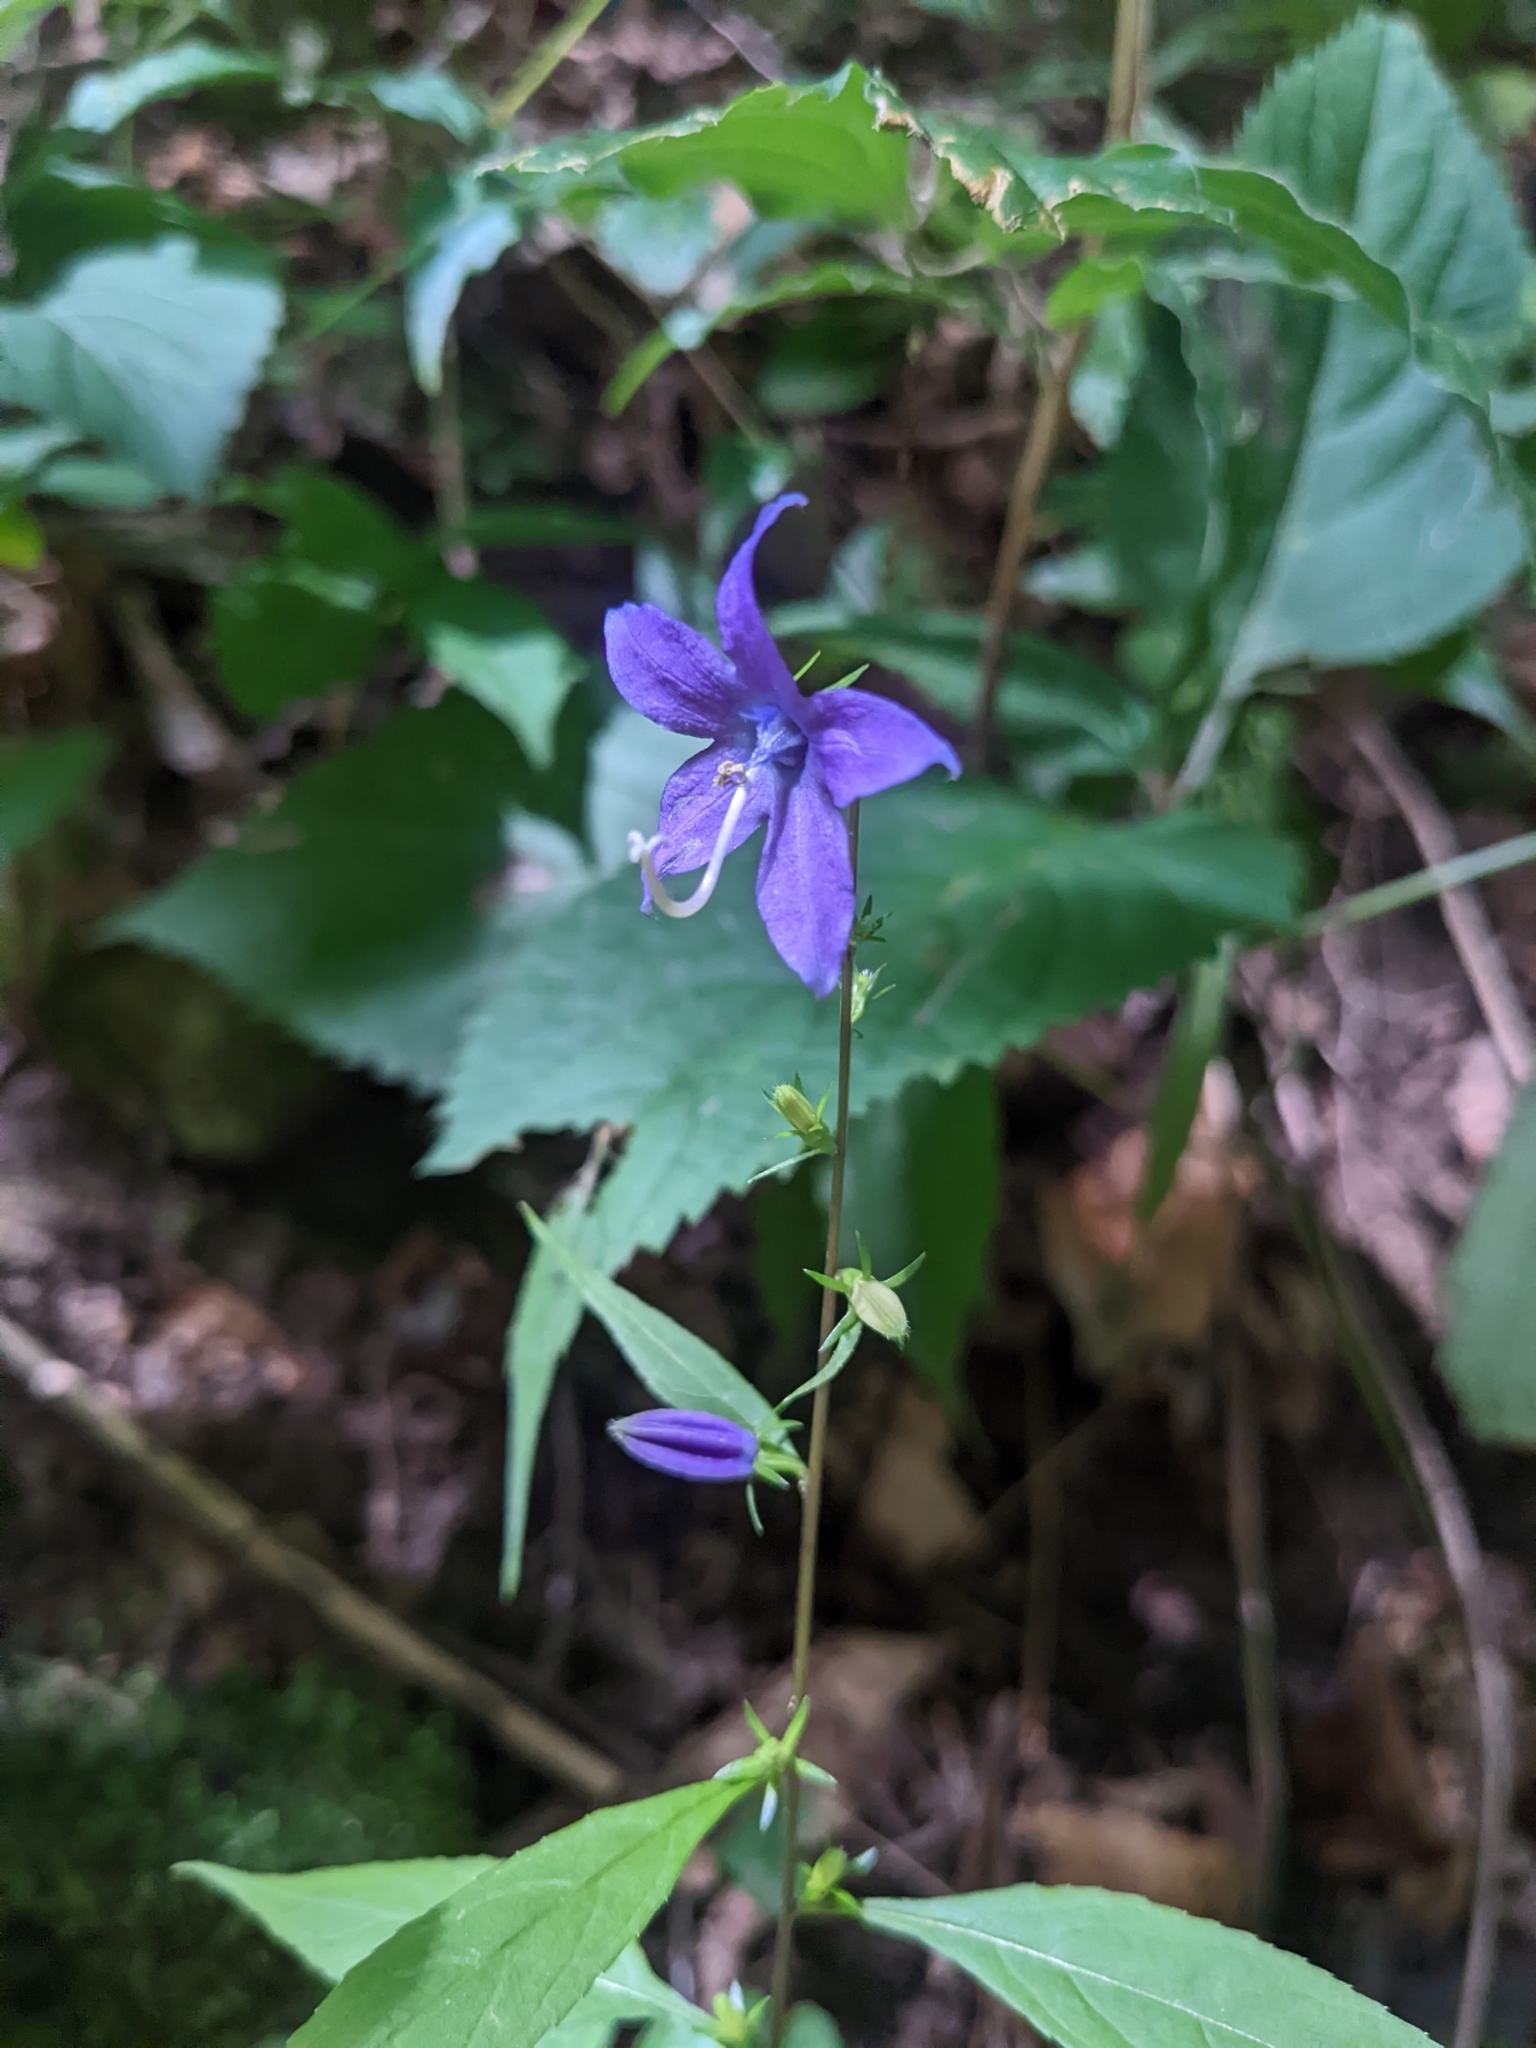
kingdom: Plantae
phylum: Tracheophyta
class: Magnoliopsida
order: Asterales
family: Campanulaceae
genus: Campanulastrum
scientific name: Campanulastrum americanum
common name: American bellflower
